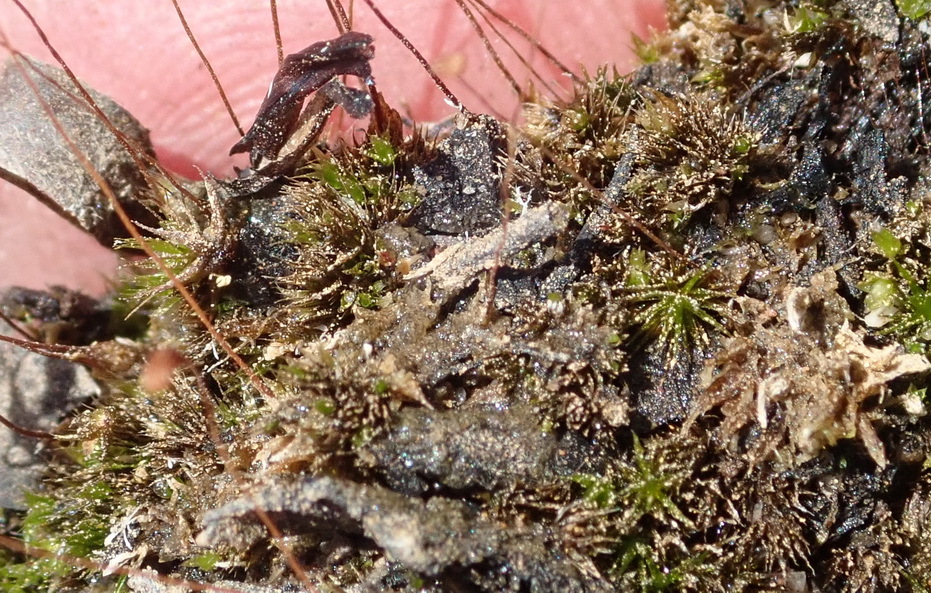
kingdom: Plantae
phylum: Bryophyta
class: Bryopsida
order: Funariales
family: Funariaceae
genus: Funaria
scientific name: Funaria hygrometrica
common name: Common cord moss
